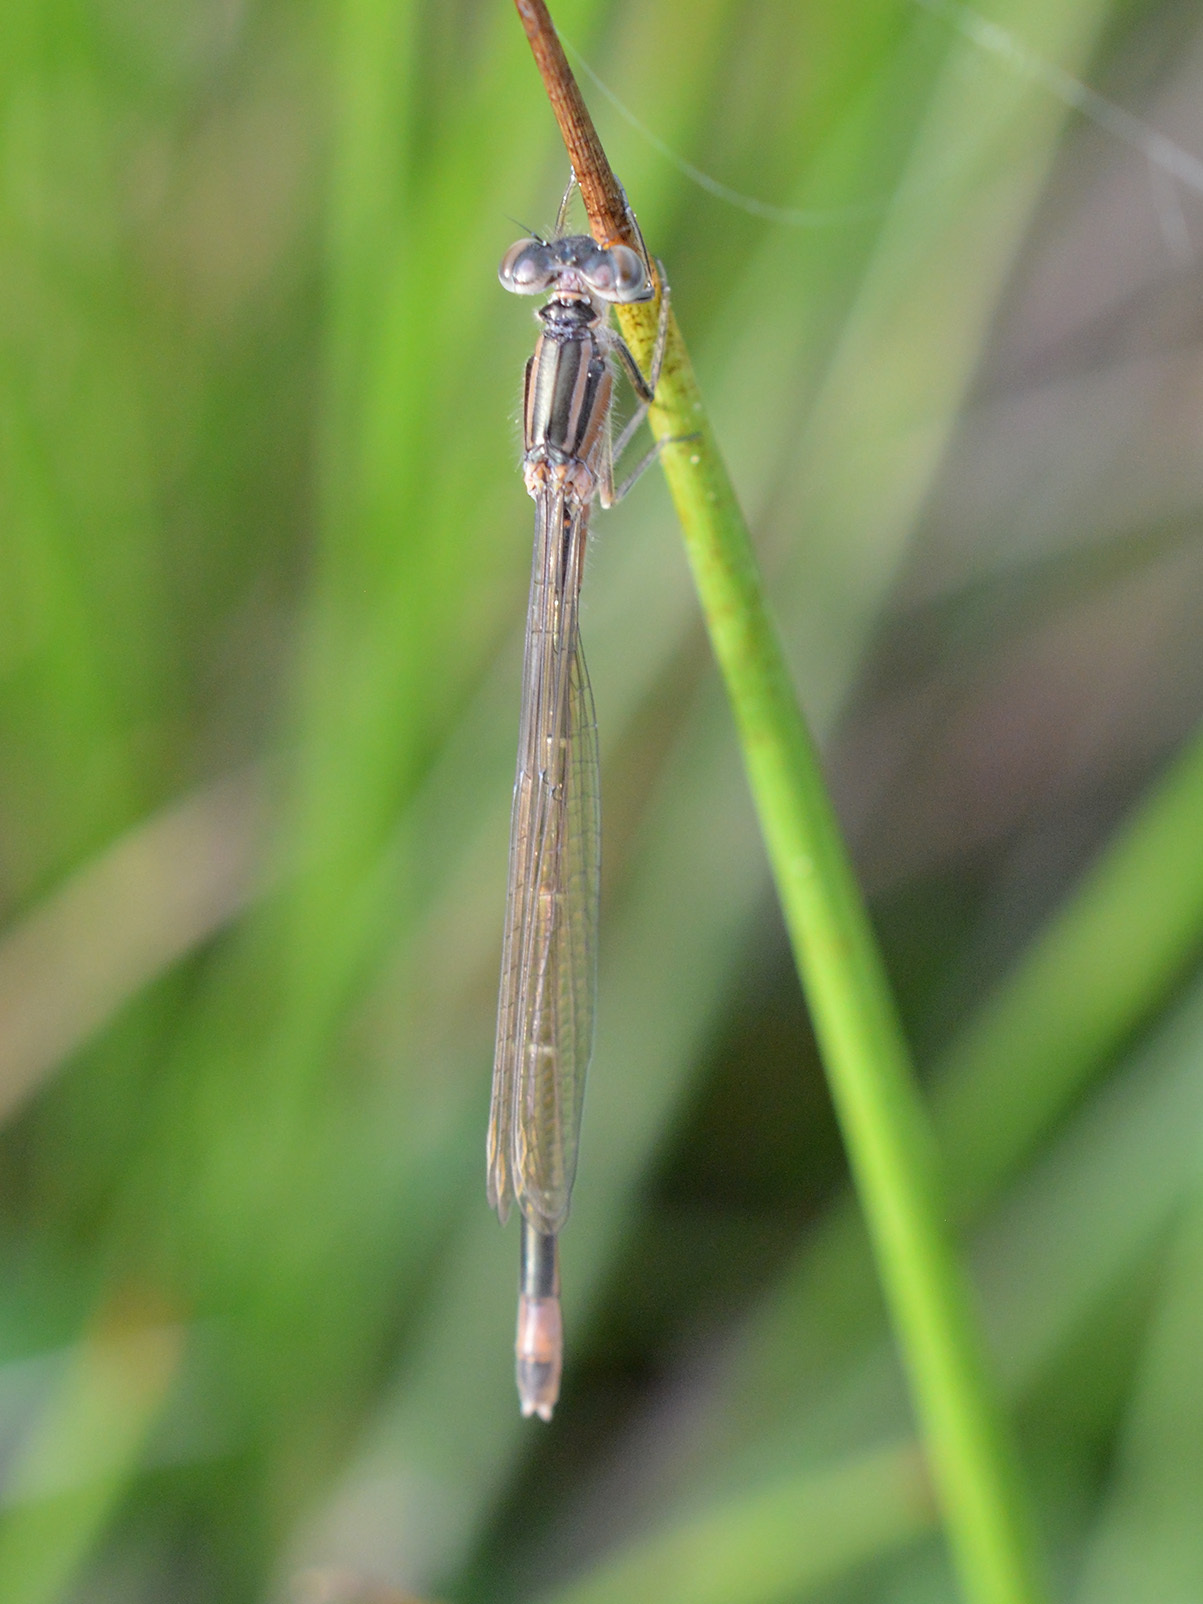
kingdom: Animalia
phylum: Arthropoda
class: Insecta
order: Odonata
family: Coenagrionidae
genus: Ischnura
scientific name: Ischnura elegans
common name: Blue-tailed damselfly
